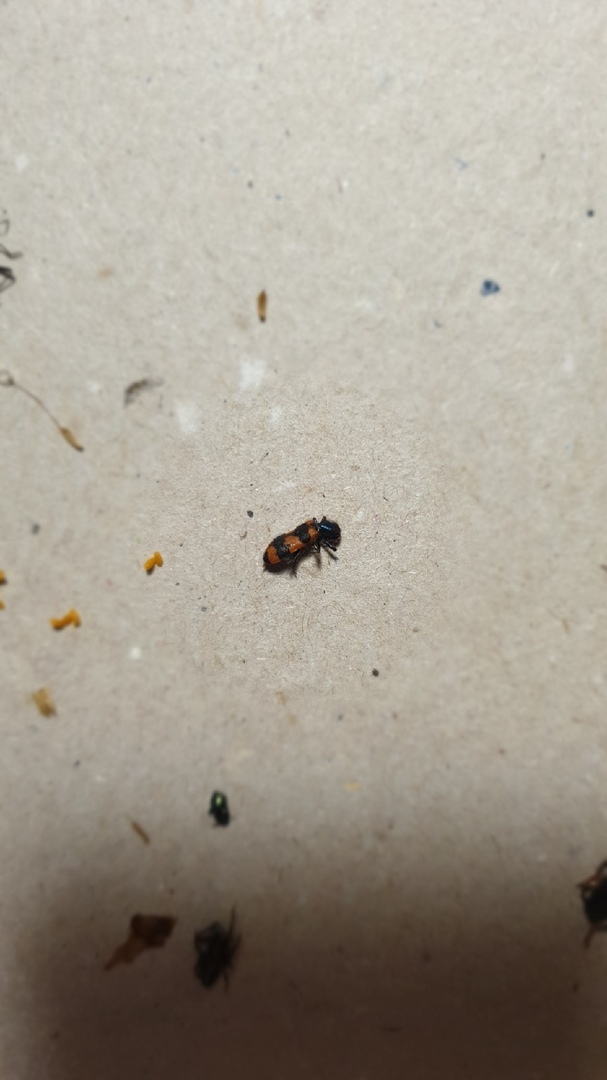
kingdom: Animalia
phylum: Arthropoda
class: Insecta
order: Coleoptera
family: Cleridae
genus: Trichodes
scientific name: Trichodes apiarius
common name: Bee-eating beetle
